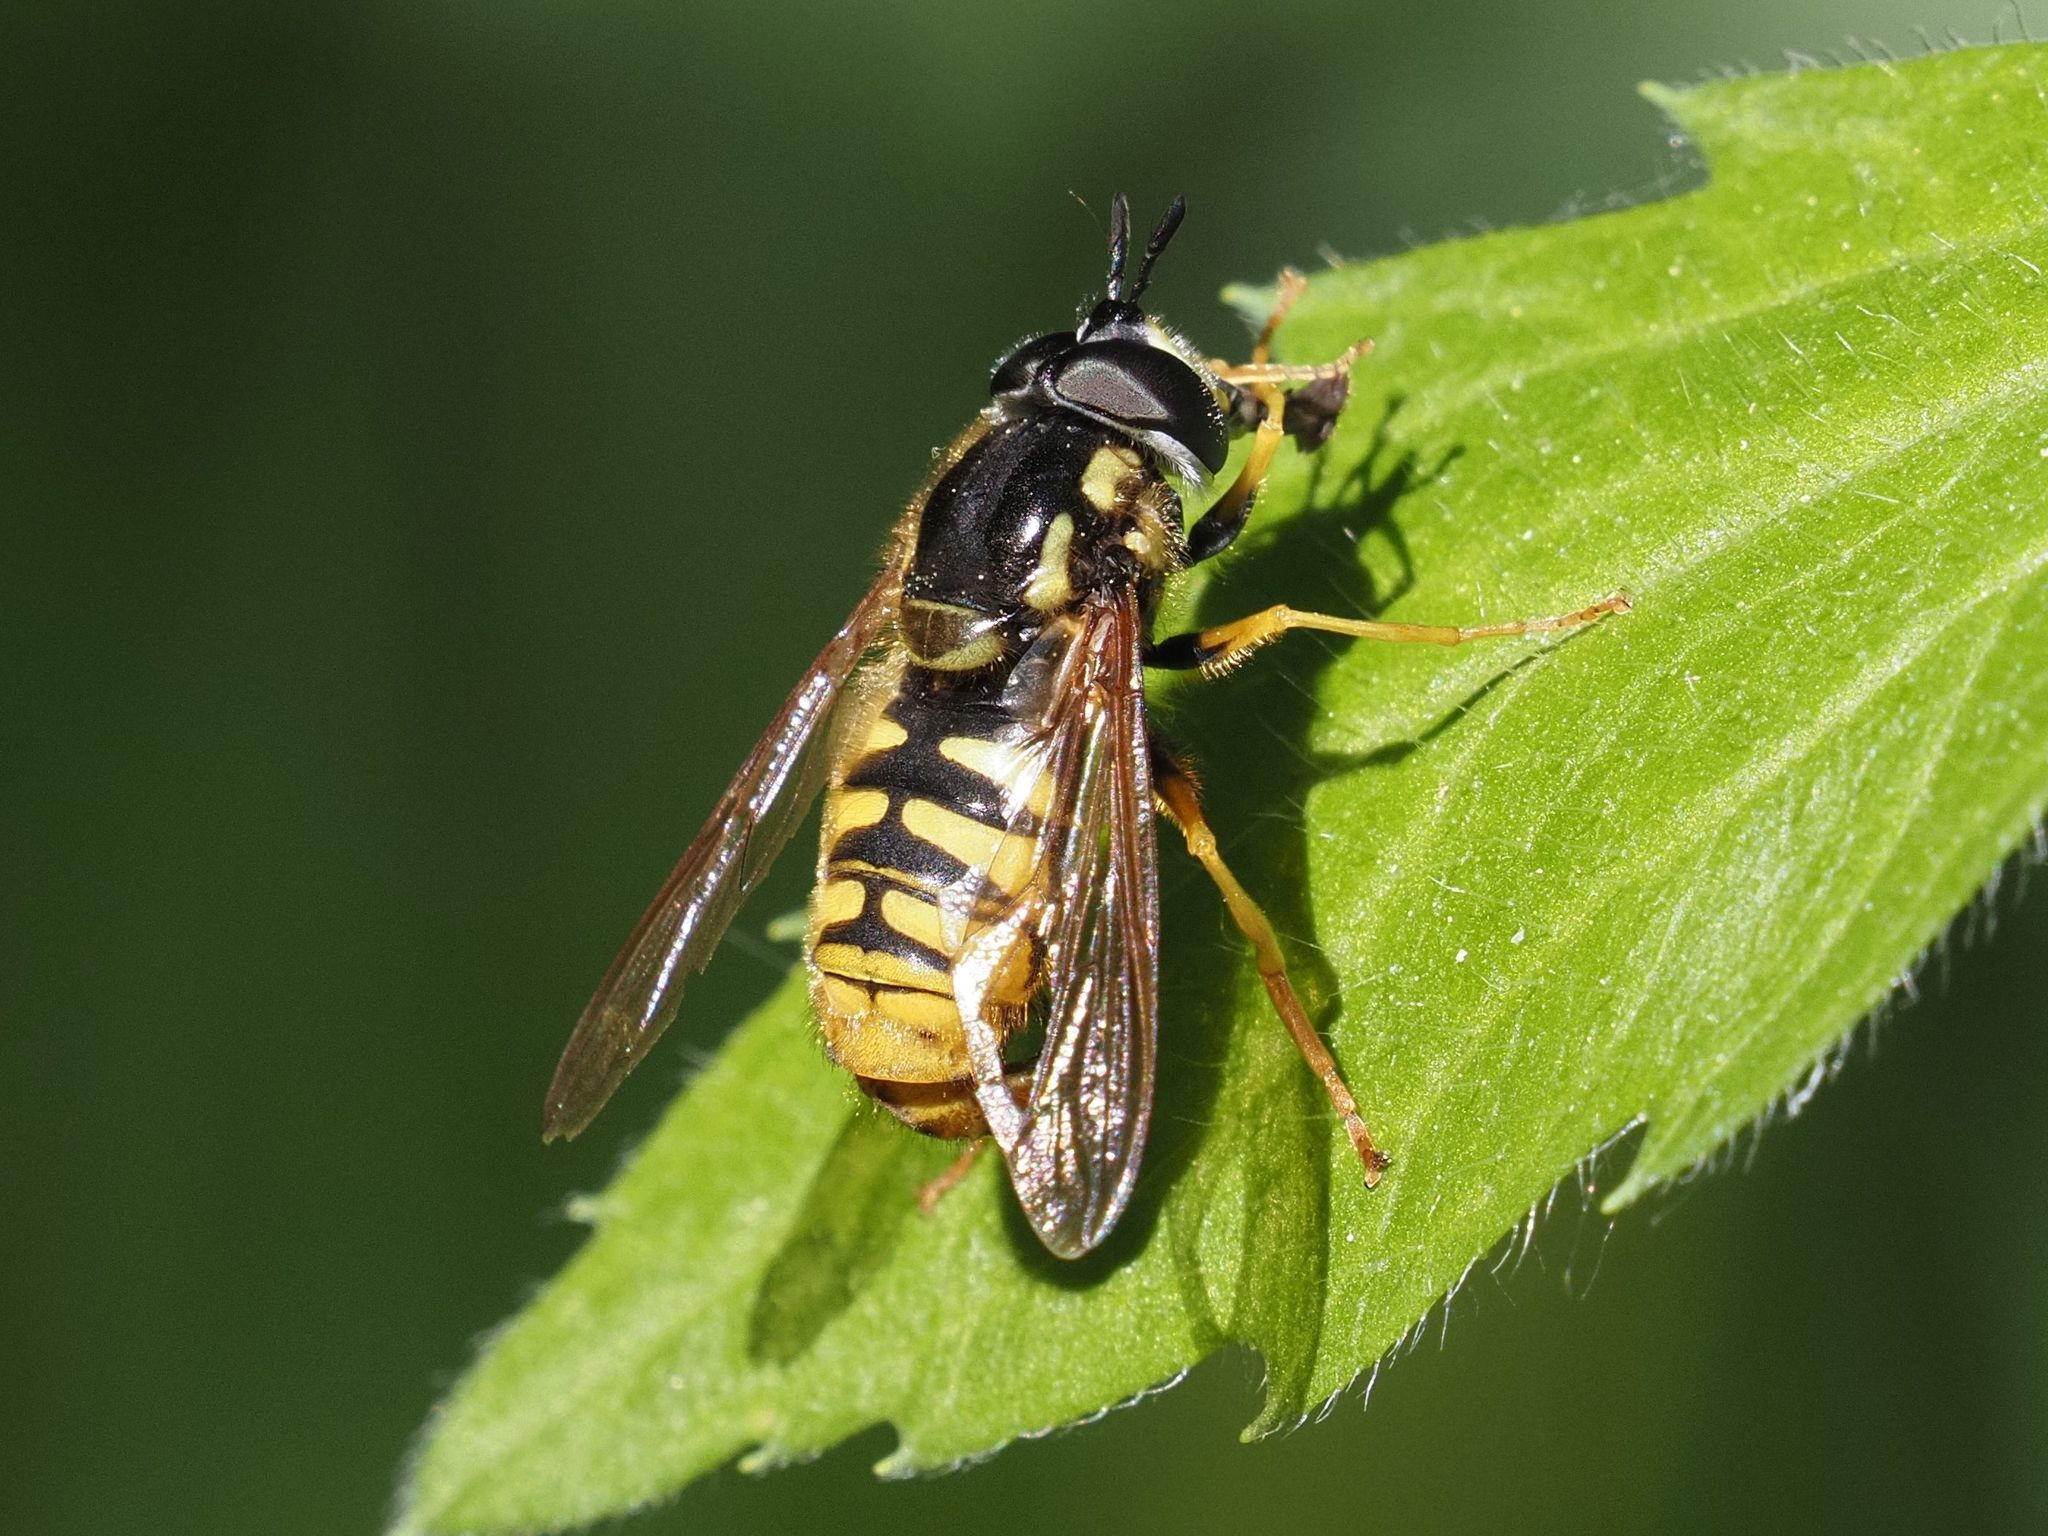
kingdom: Animalia
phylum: Arthropoda
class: Insecta
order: Diptera
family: Syrphidae
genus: Chrysotoxum
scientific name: Chrysotoxum cautum
